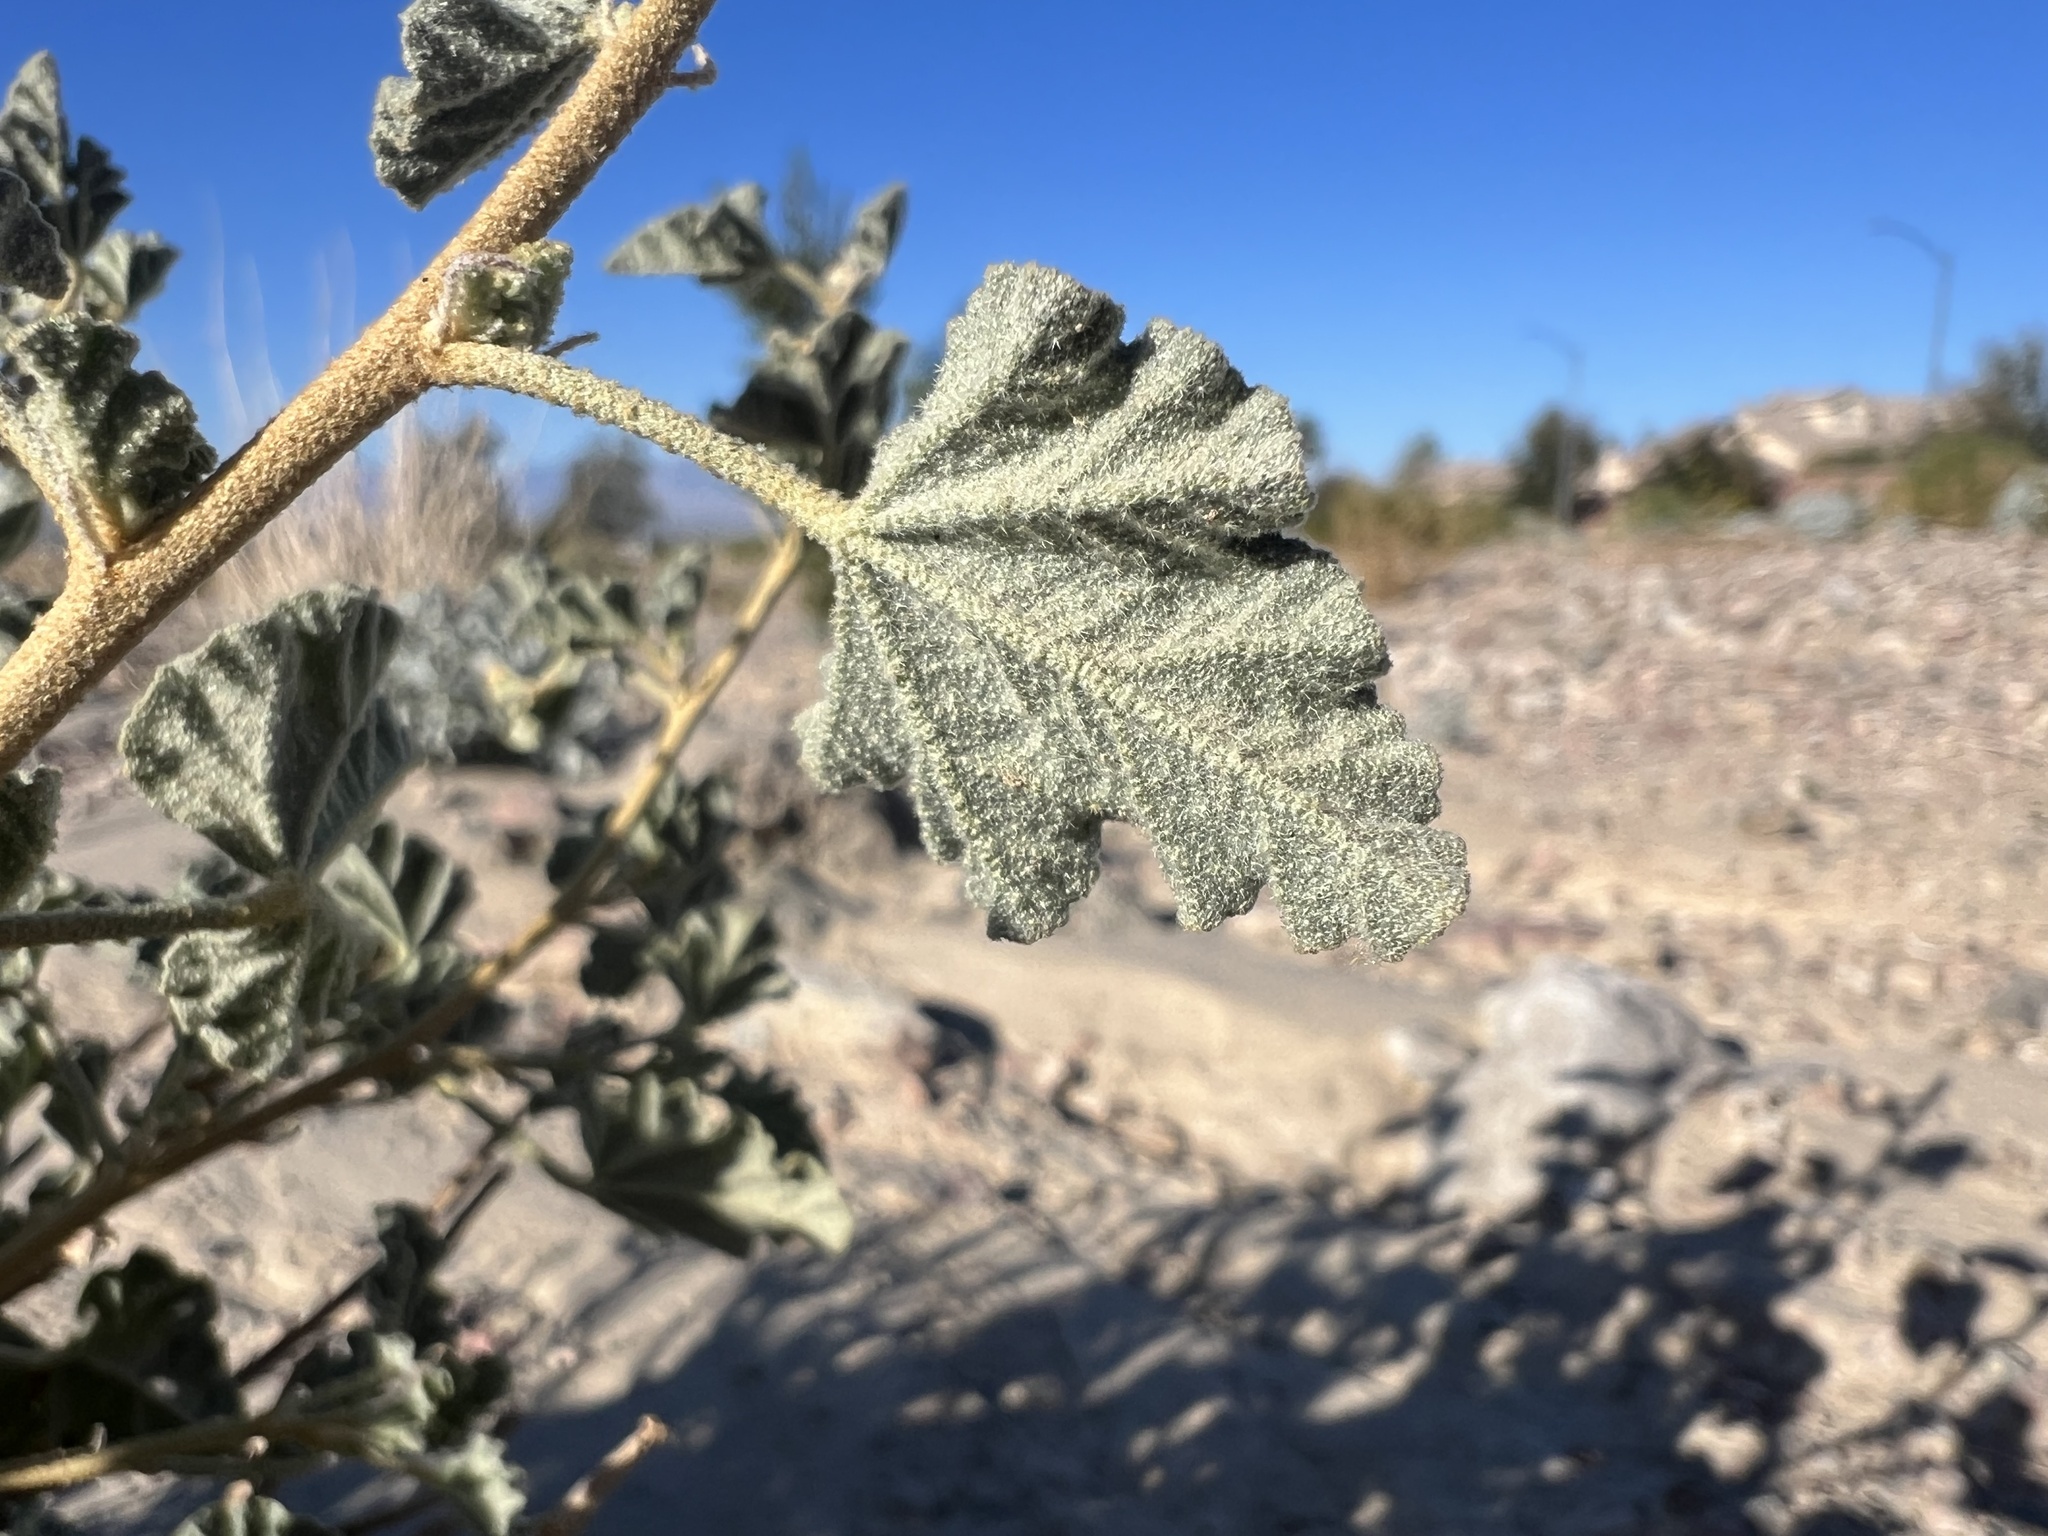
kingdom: Plantae
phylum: Tracheophyta
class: Magnoliopsida
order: Malvales
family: Malvaceae
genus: Sphaeralcea
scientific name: Sphaeralcea ambigua
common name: Apricot globe-mallow
